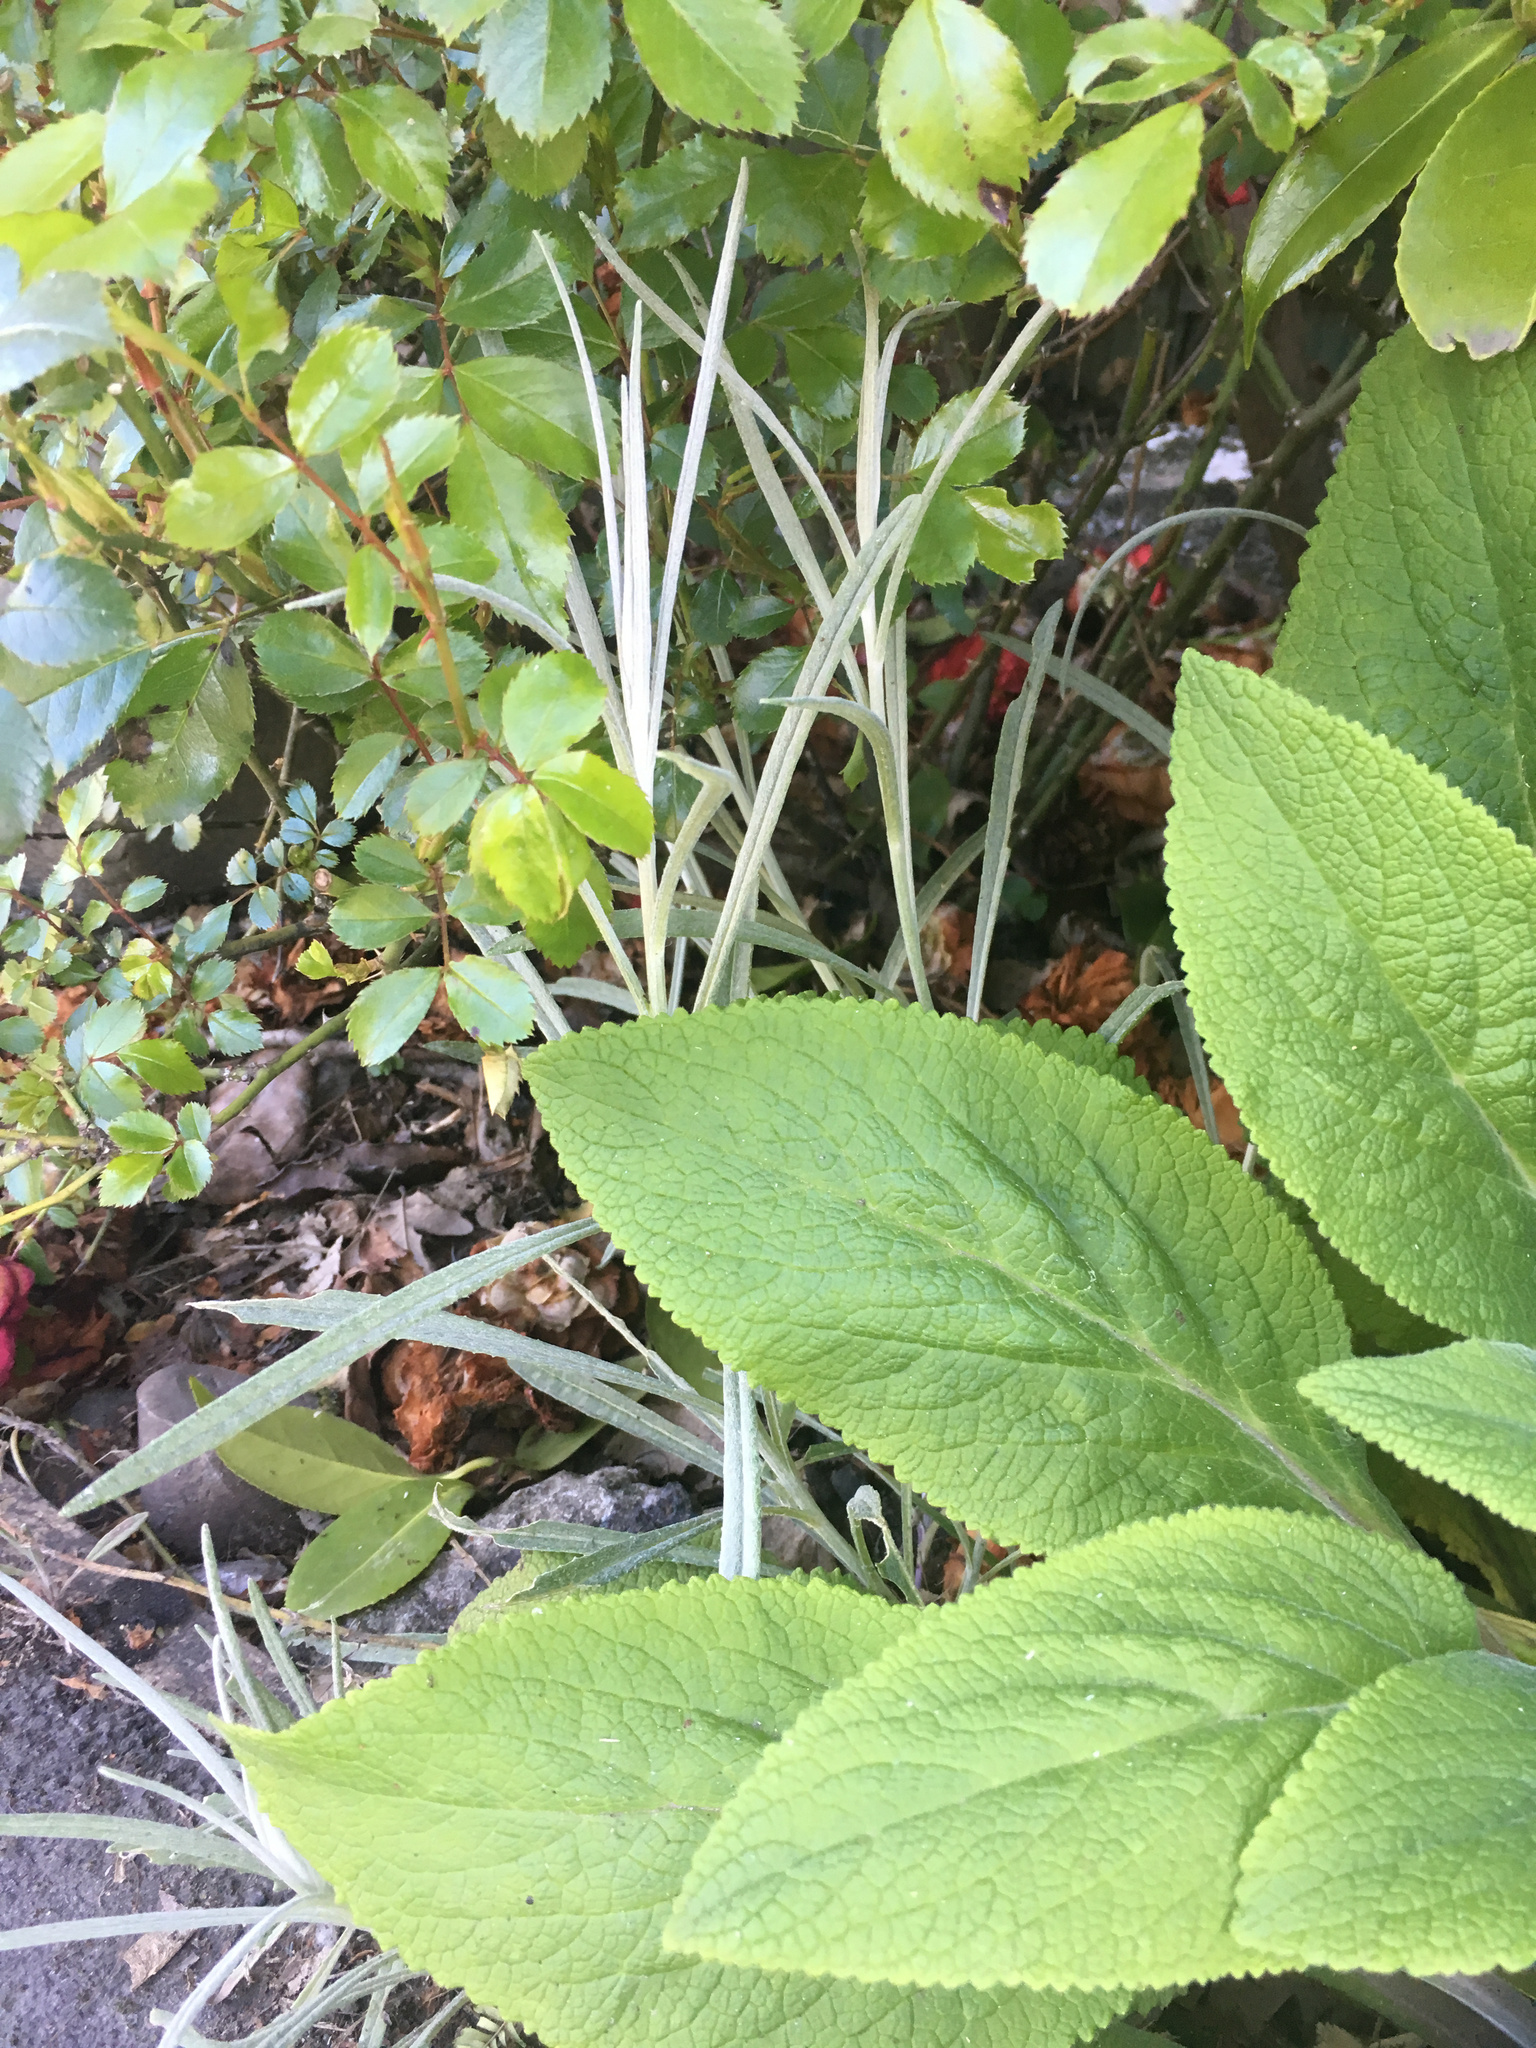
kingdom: Plantae
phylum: Tracheophyta
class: Magnoliopsida
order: Asterales
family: Asteraceae
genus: Senecio
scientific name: Senecio quadridentatus
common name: Cotton fireweed
